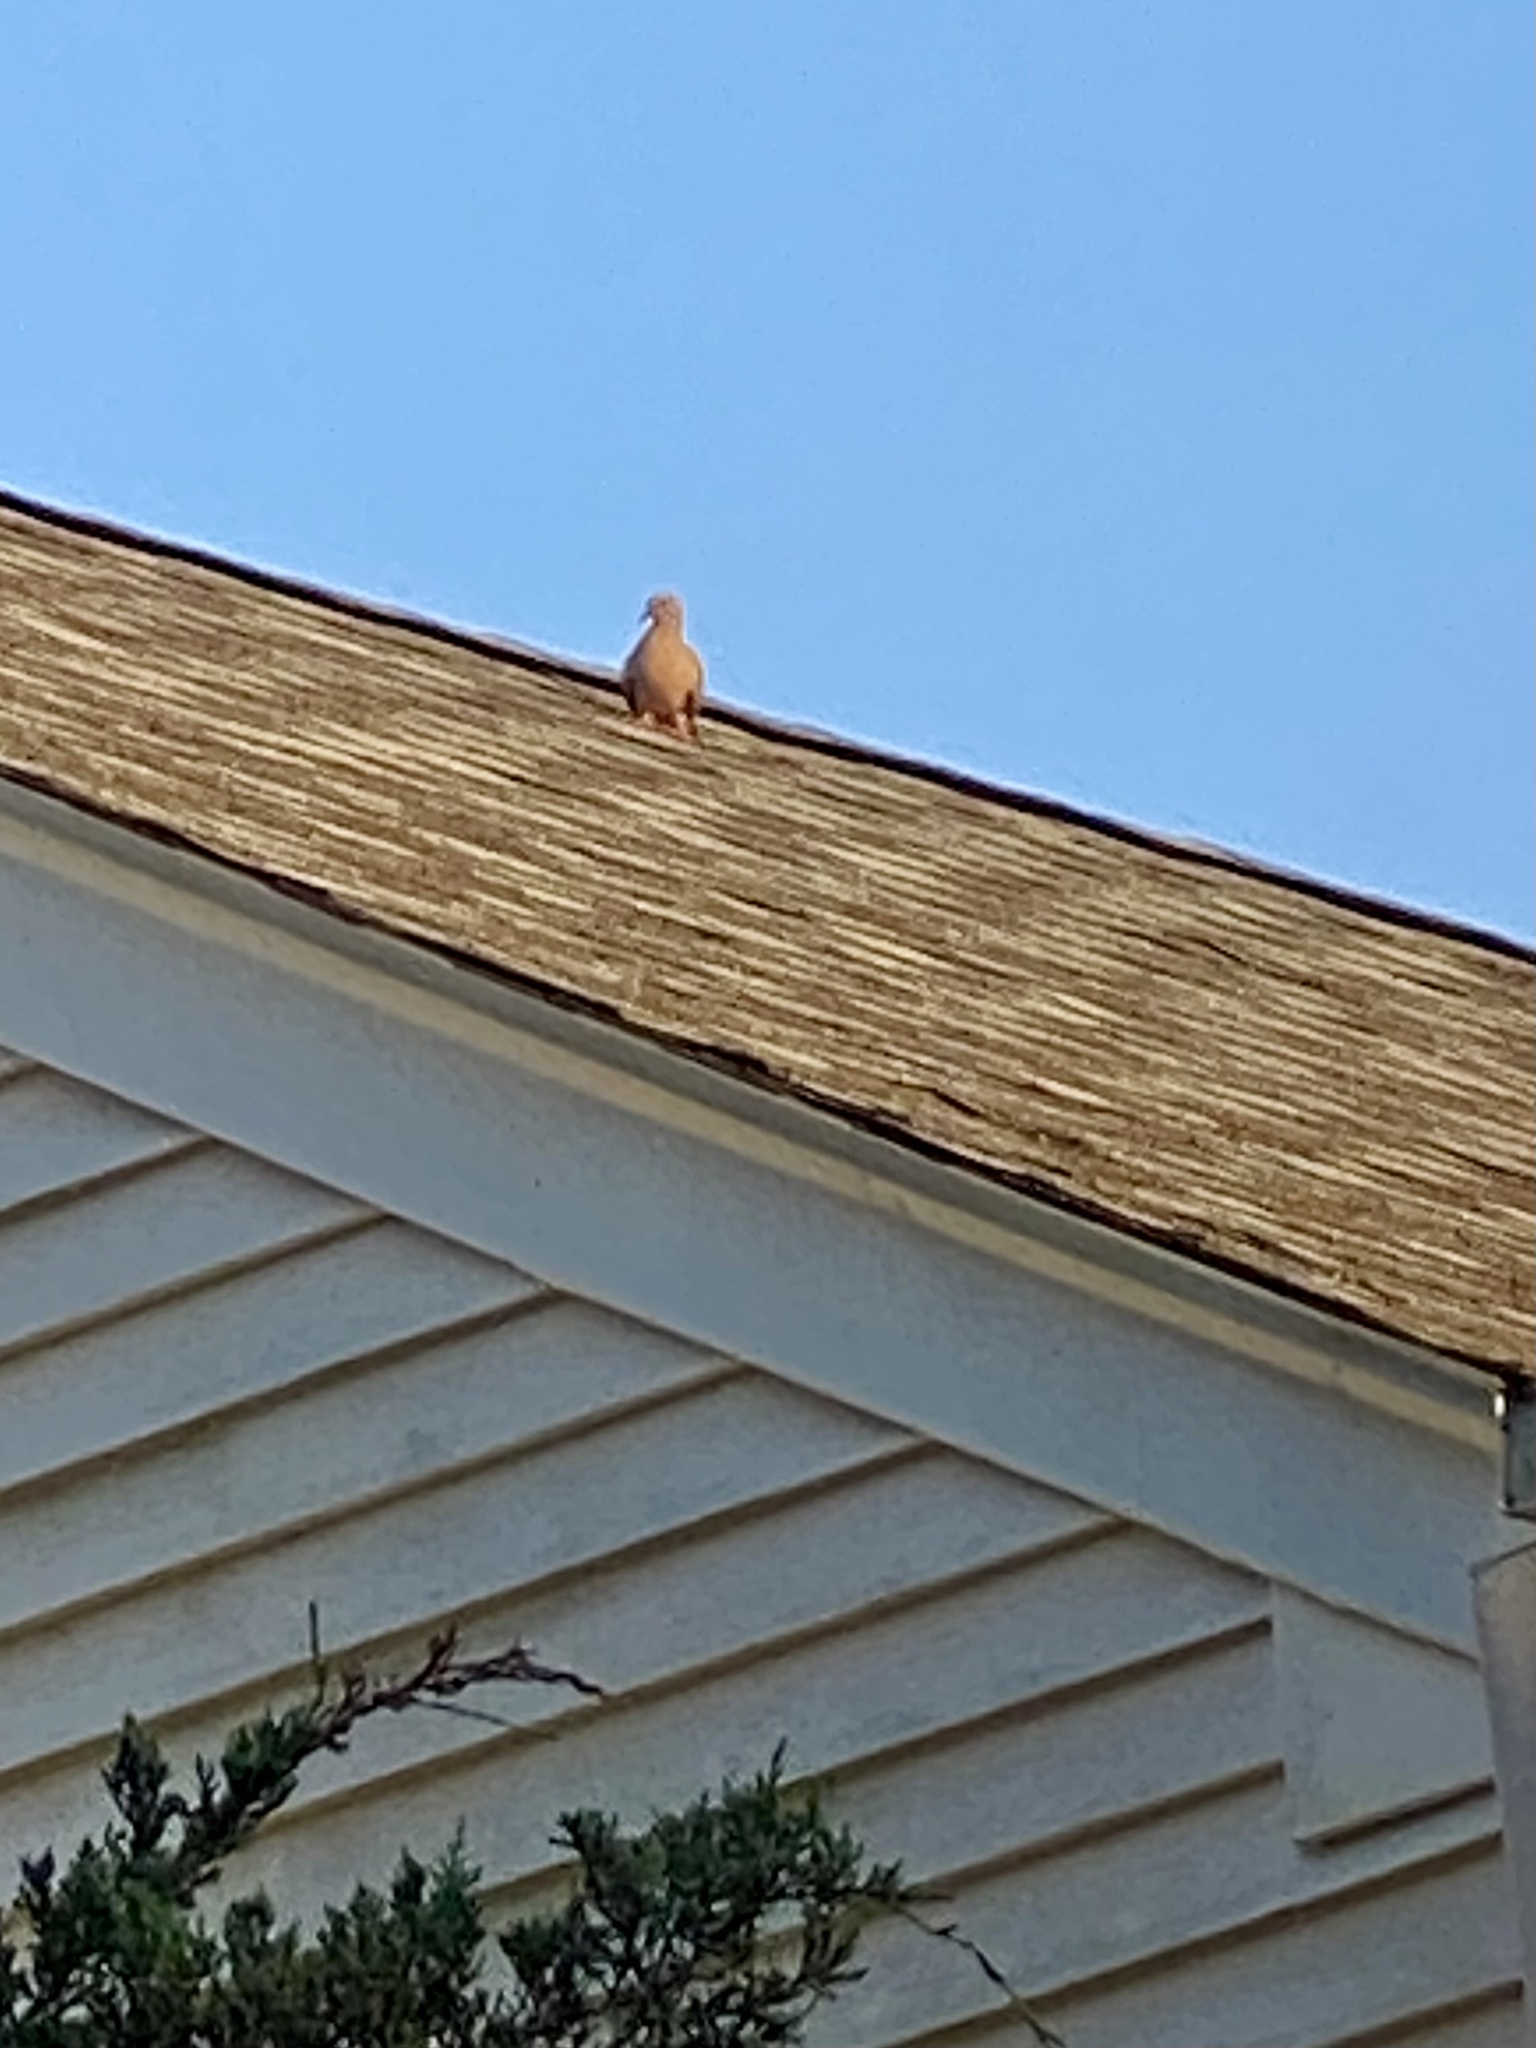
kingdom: Animalia
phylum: Chordata
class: Aves
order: Columbiformes
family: Columbidae
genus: Zenaida
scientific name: Zenaida macroura
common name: Mourning dove
